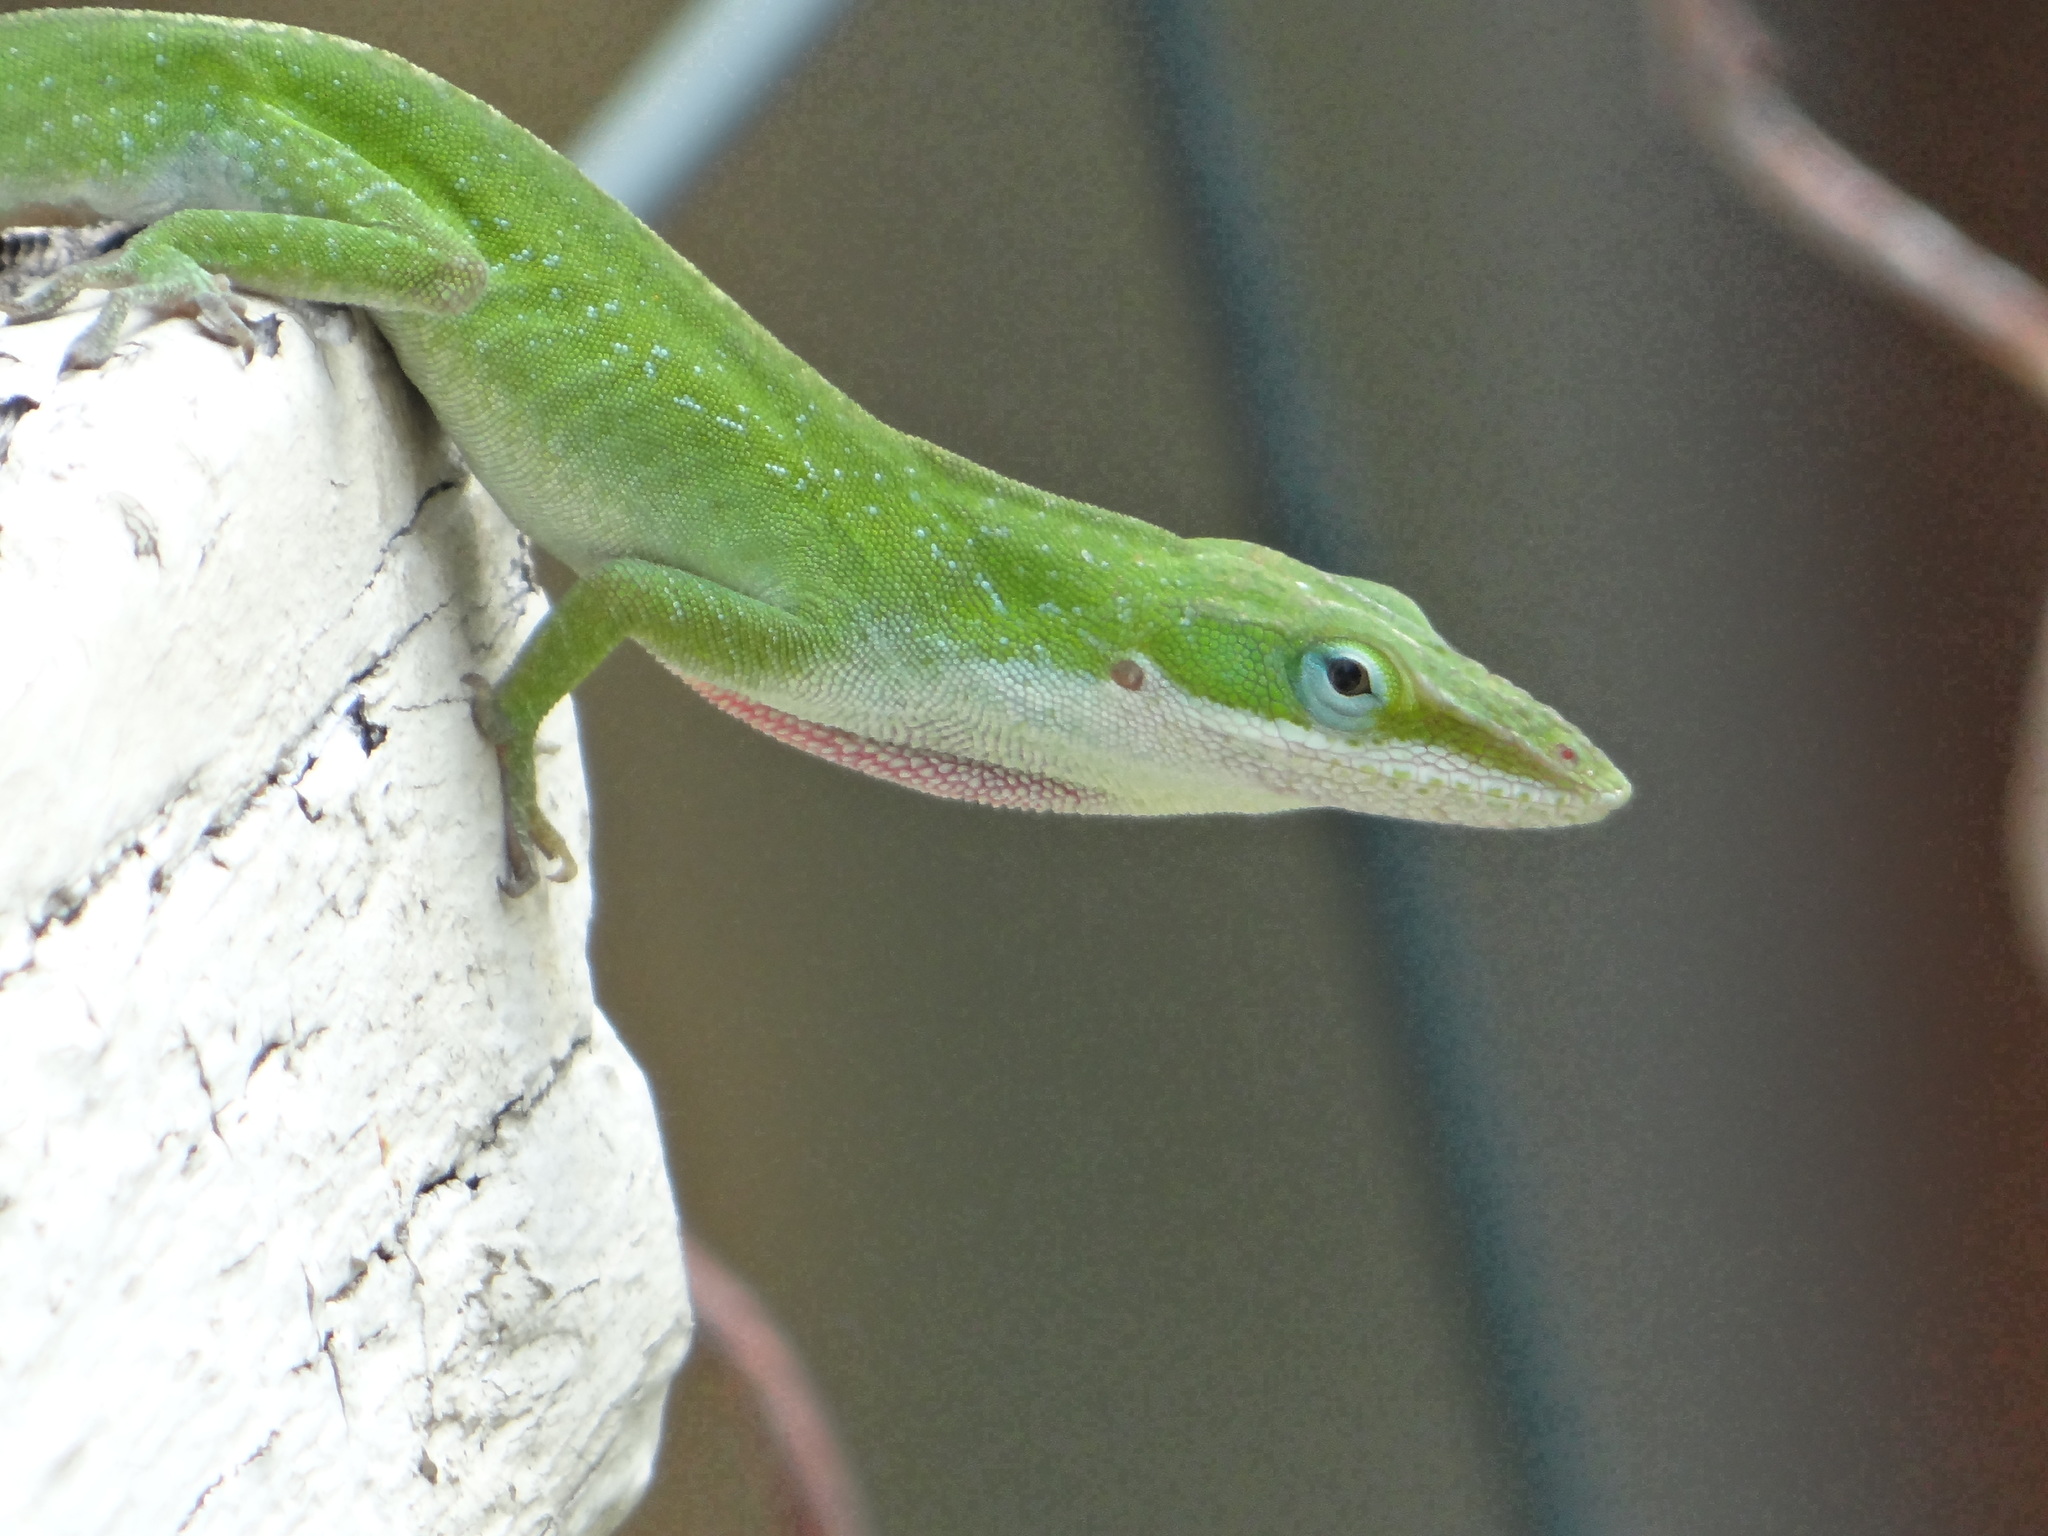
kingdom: Animalia
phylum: Chordata
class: Squamata
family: Dactyloidae
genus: Anolis
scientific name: Anolis carolinensis
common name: Green anole
